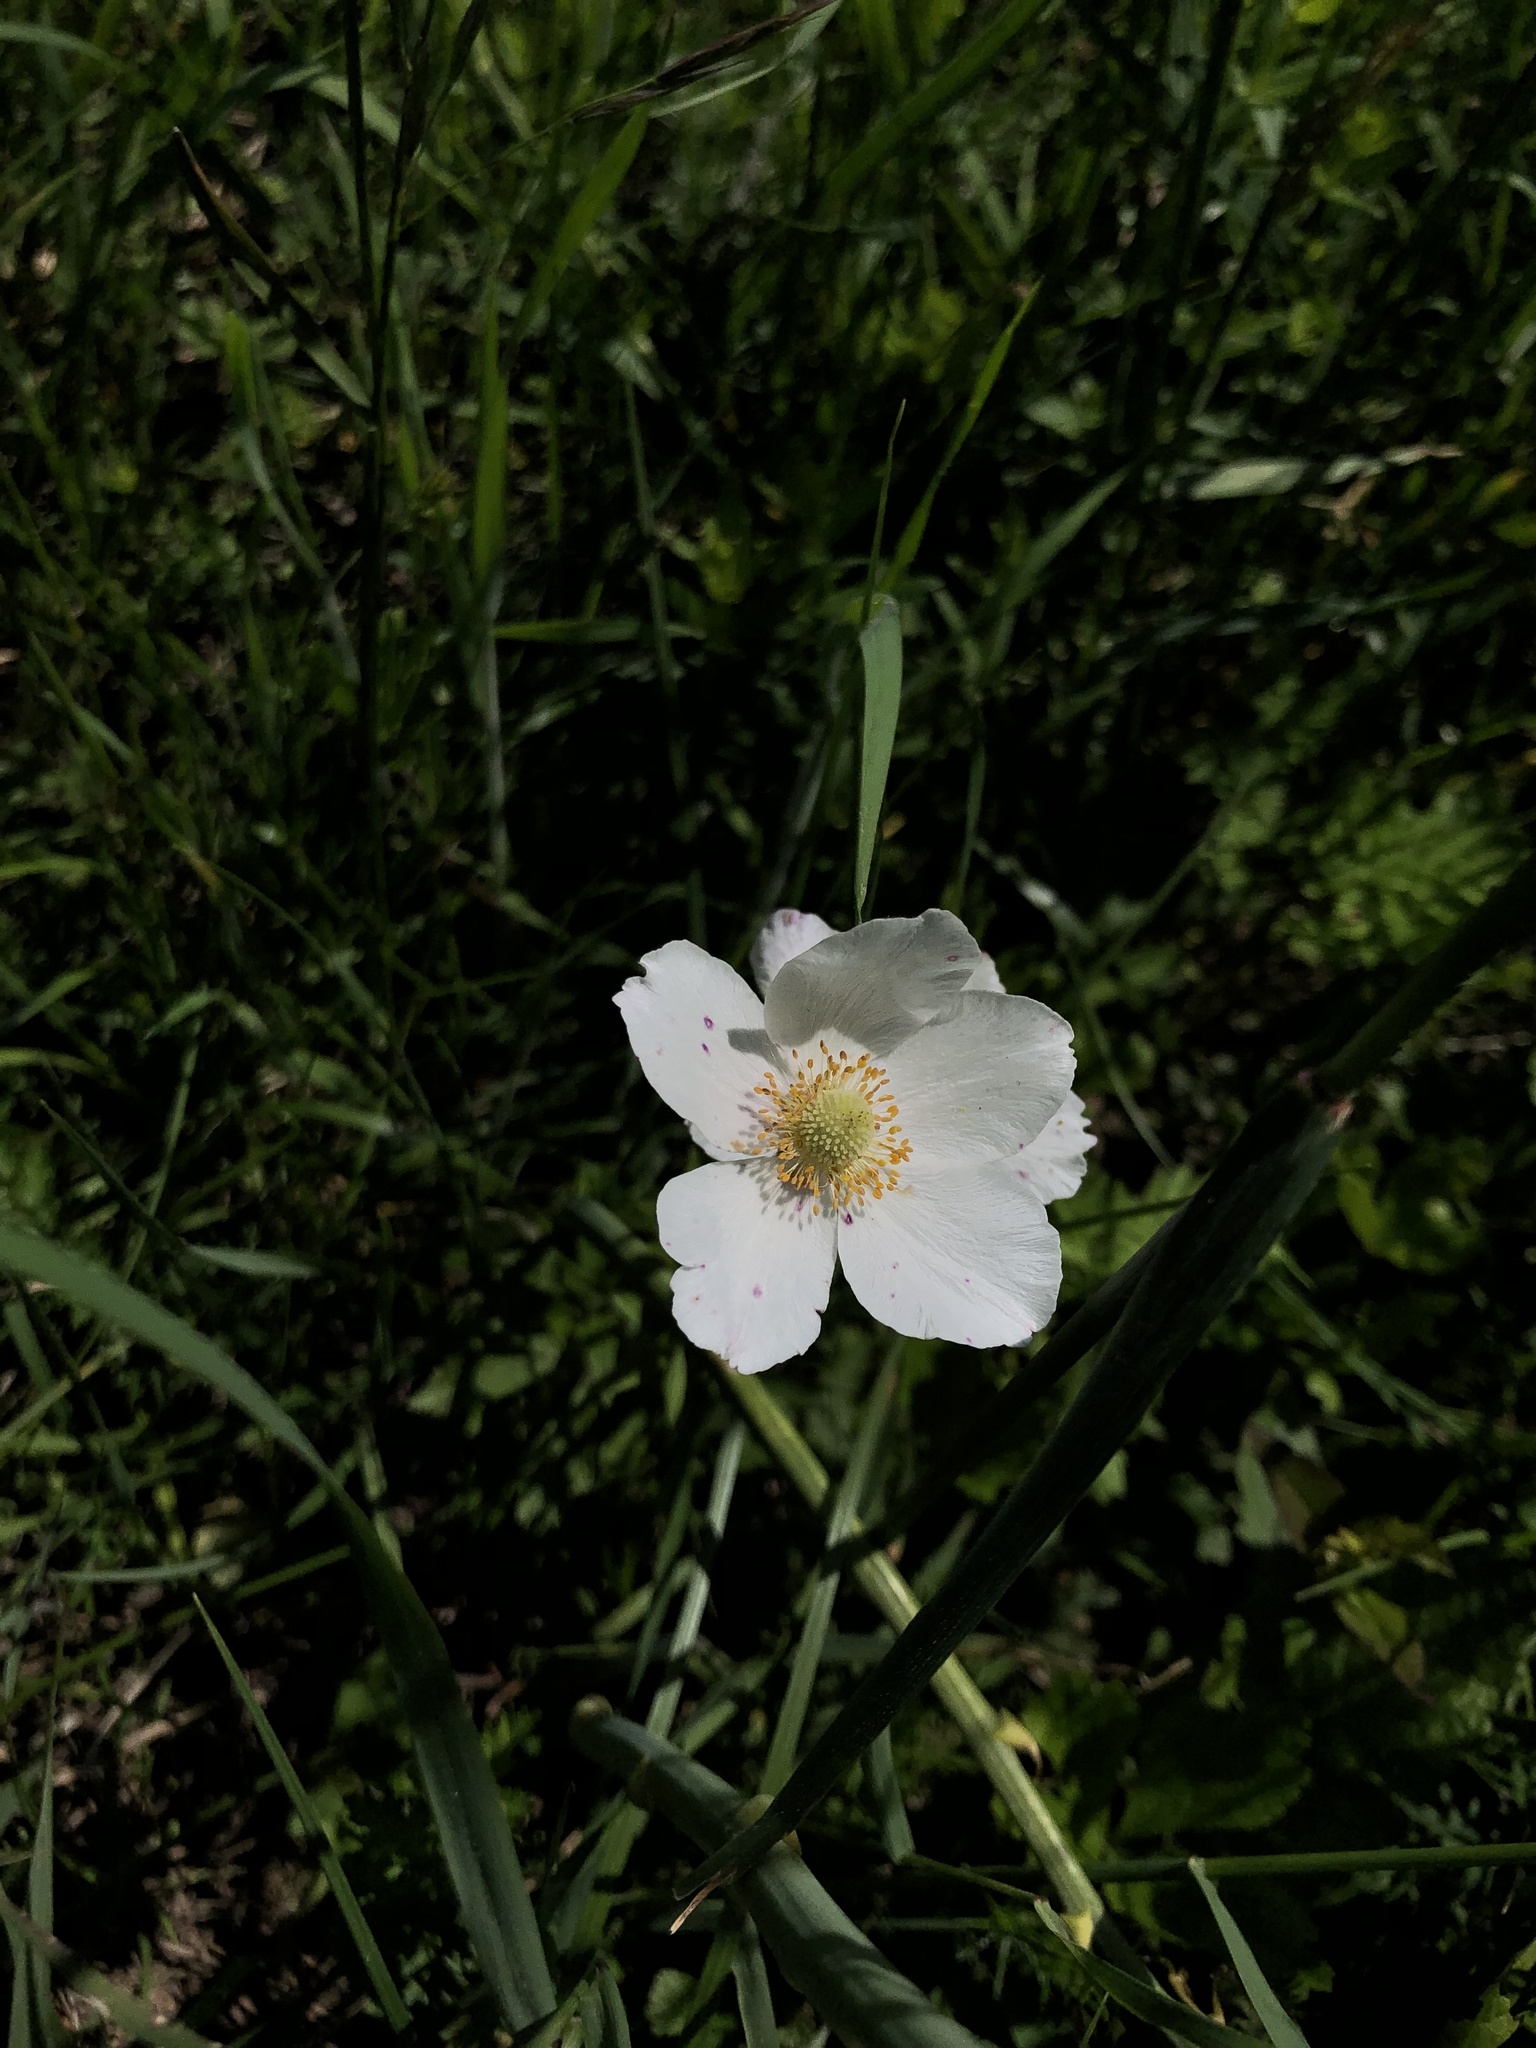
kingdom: Plantae
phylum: Tracheophyta
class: Magnoliopsida
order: Ranunculales
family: Ranunculaceae
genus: Anemone
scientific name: Anemone sylvestris
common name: Snowdrop anemone
